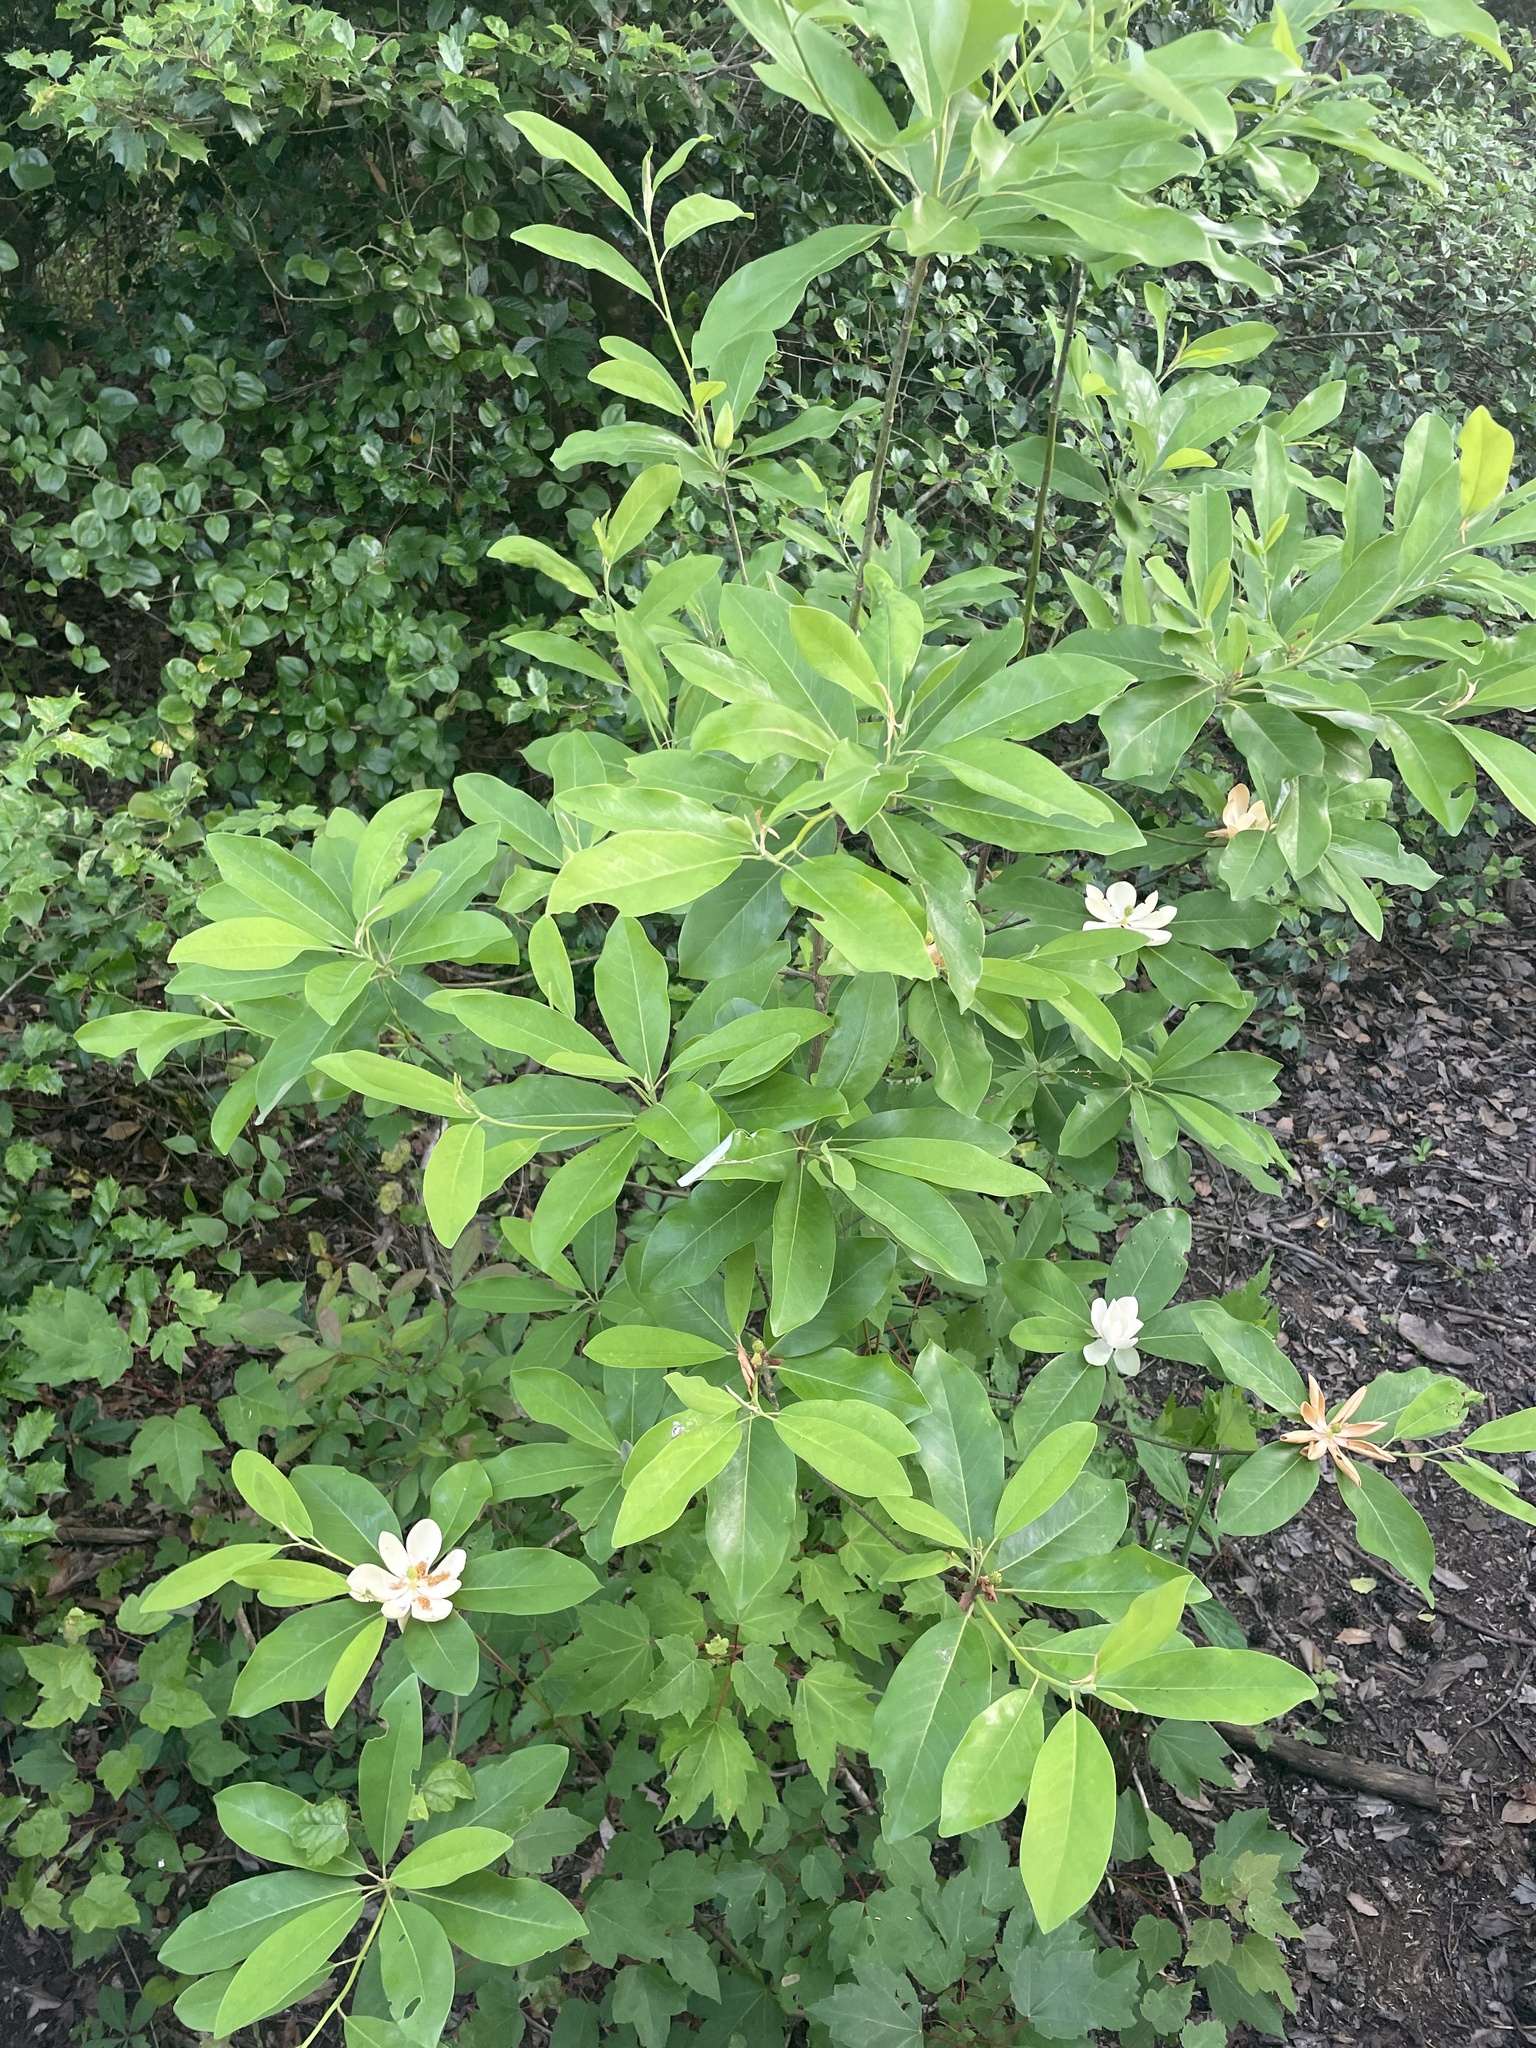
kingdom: Plantae
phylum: Tracheophyta
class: Magnoliopsida
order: Magnoliales
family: Magnoliaceae
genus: Magnolia
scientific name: Magnolia virginiana
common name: Swamp bay
